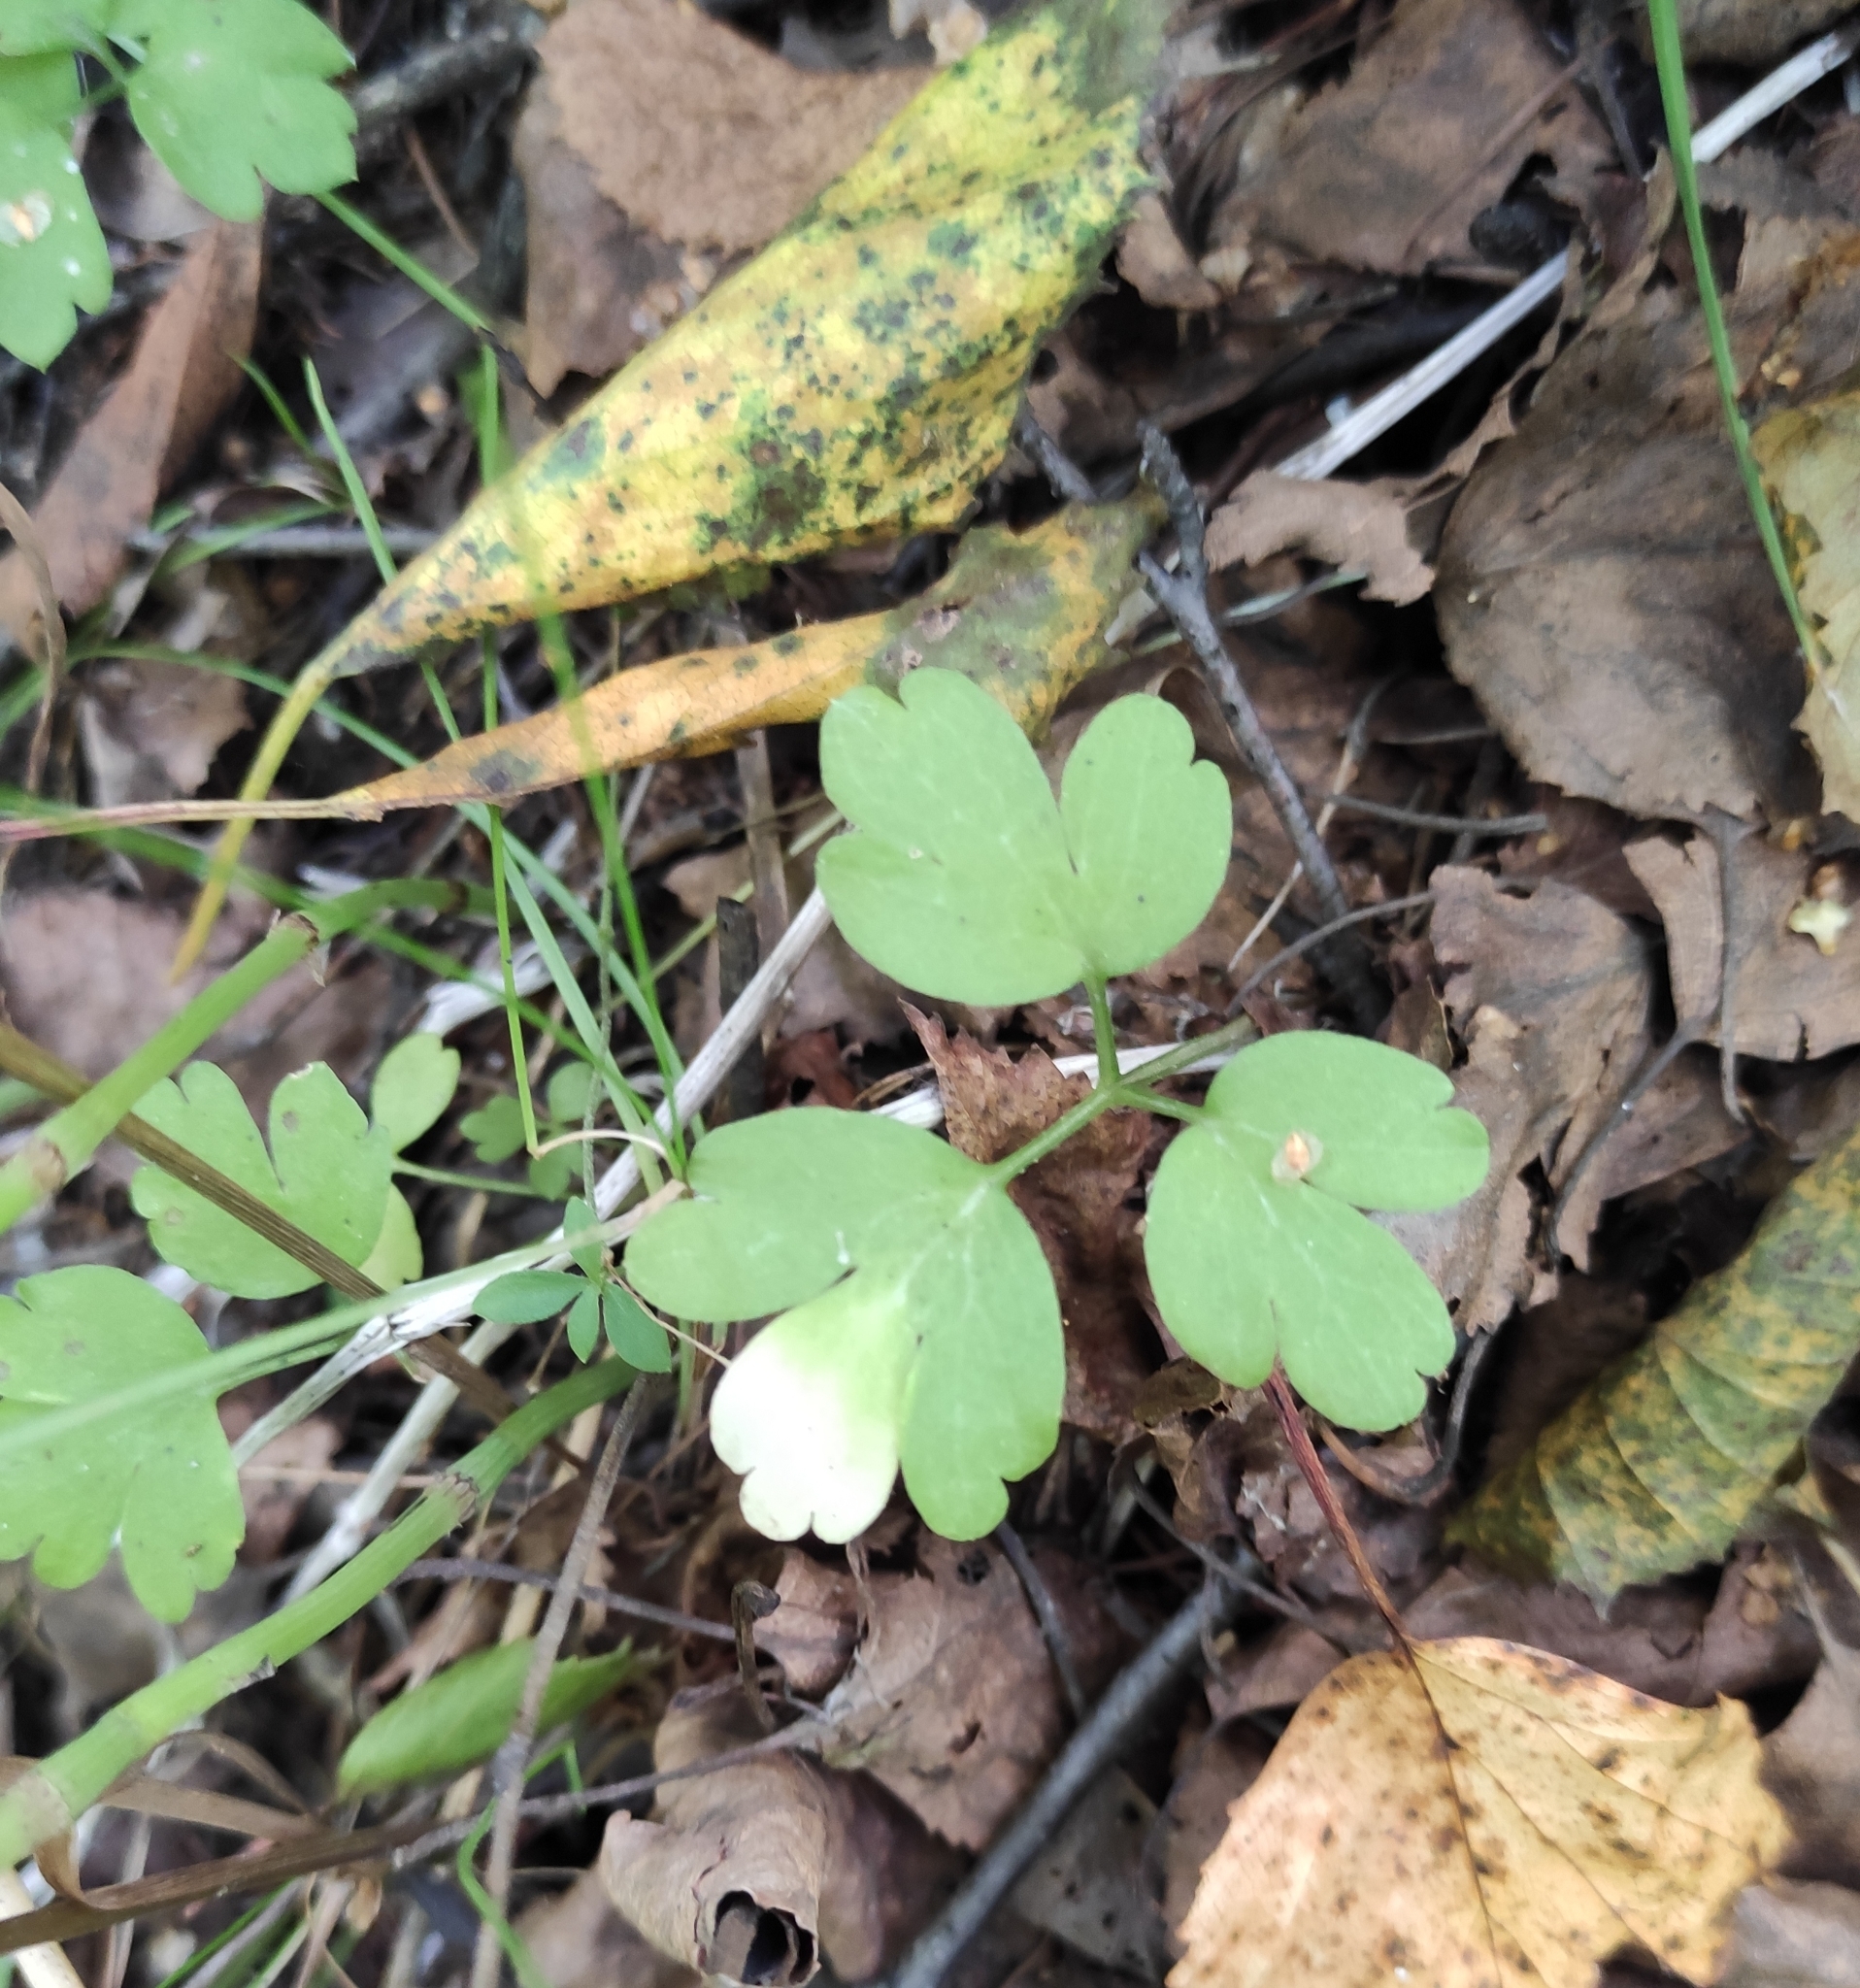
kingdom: Plantae
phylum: Tracheophyta
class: Magnoliopsida
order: Dipsacales
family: Viburnaceae
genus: Adoxa
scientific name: Adoxa moschatellina
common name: Moschatel
